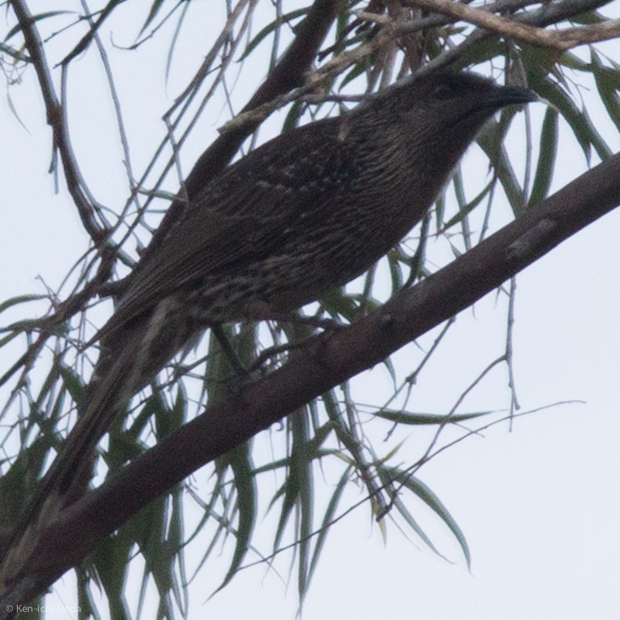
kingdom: Animalia
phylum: Chordata
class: Aves
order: Passeriformes
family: Meliphagidae
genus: Anthochaera
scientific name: Anthochaera chrysoptera
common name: Little wattlebird
